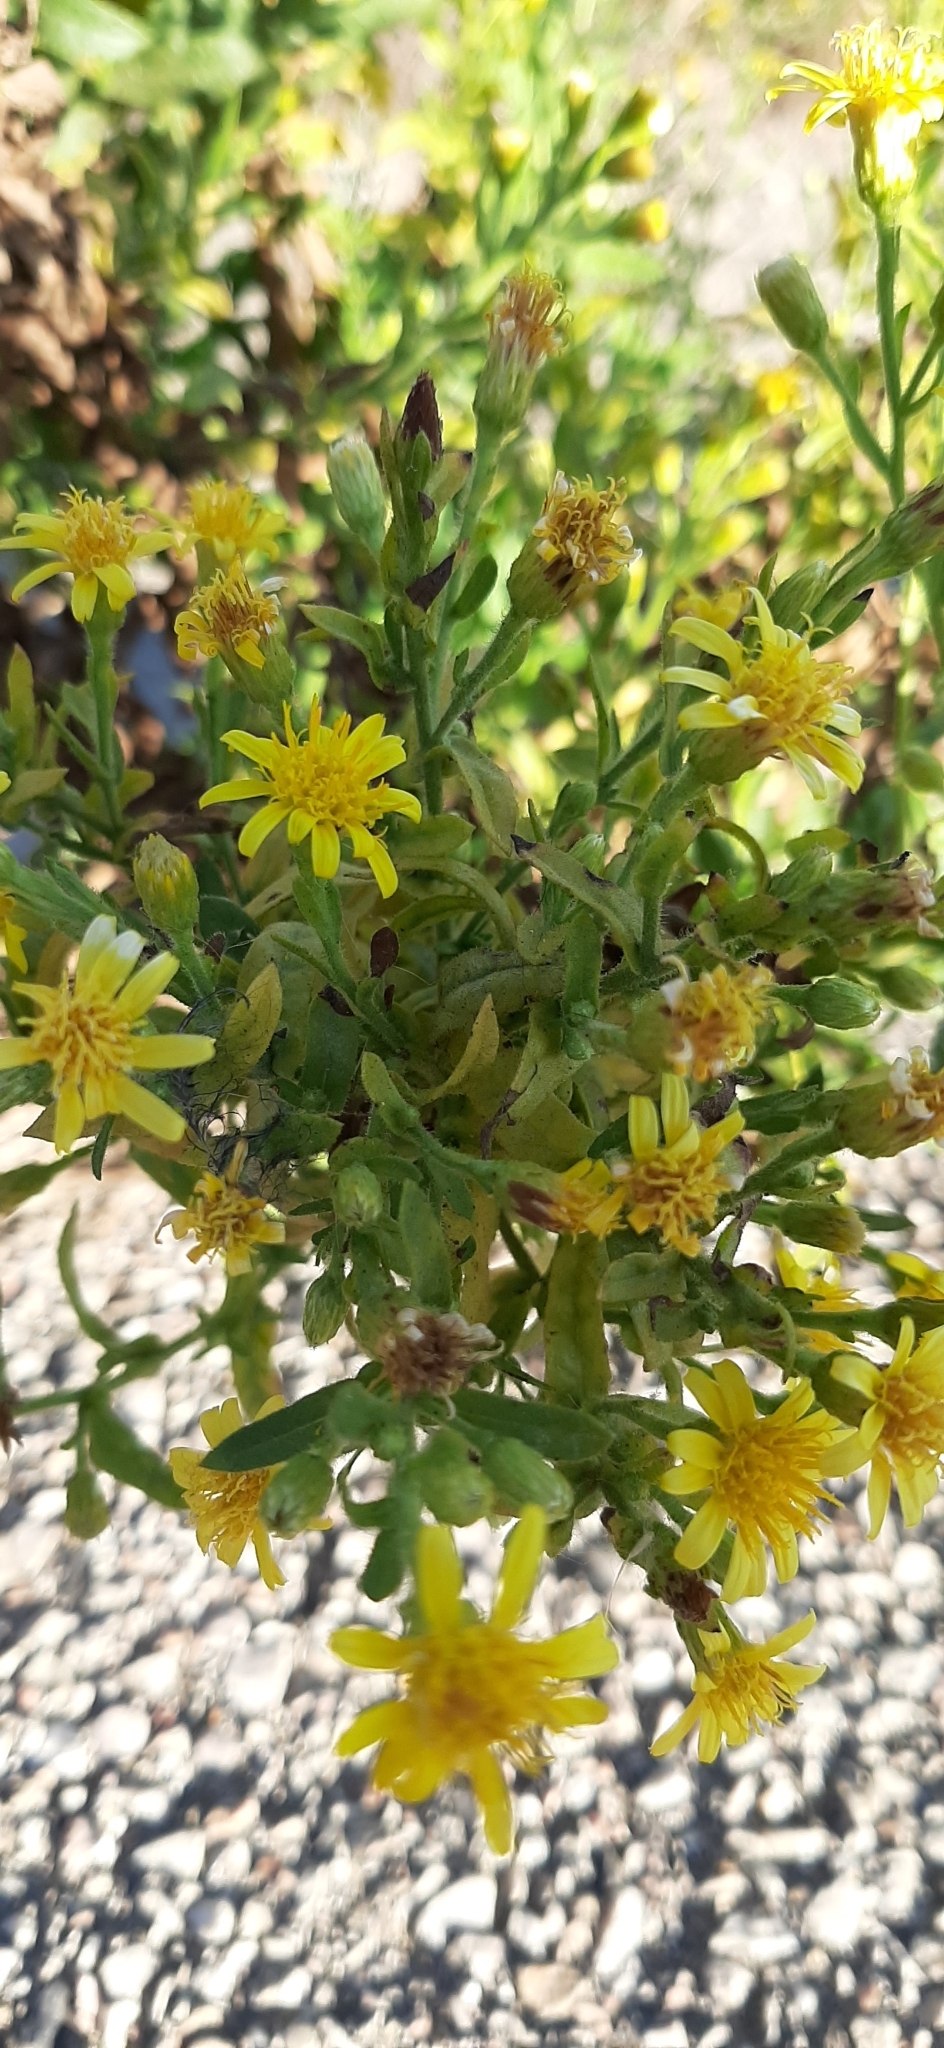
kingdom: Plantae
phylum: Tracheophyta
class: Magnoliopsida
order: Asterales
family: Asteraceae
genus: Dittrichia
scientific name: Dittrichia viscosa
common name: Woody fleabane
